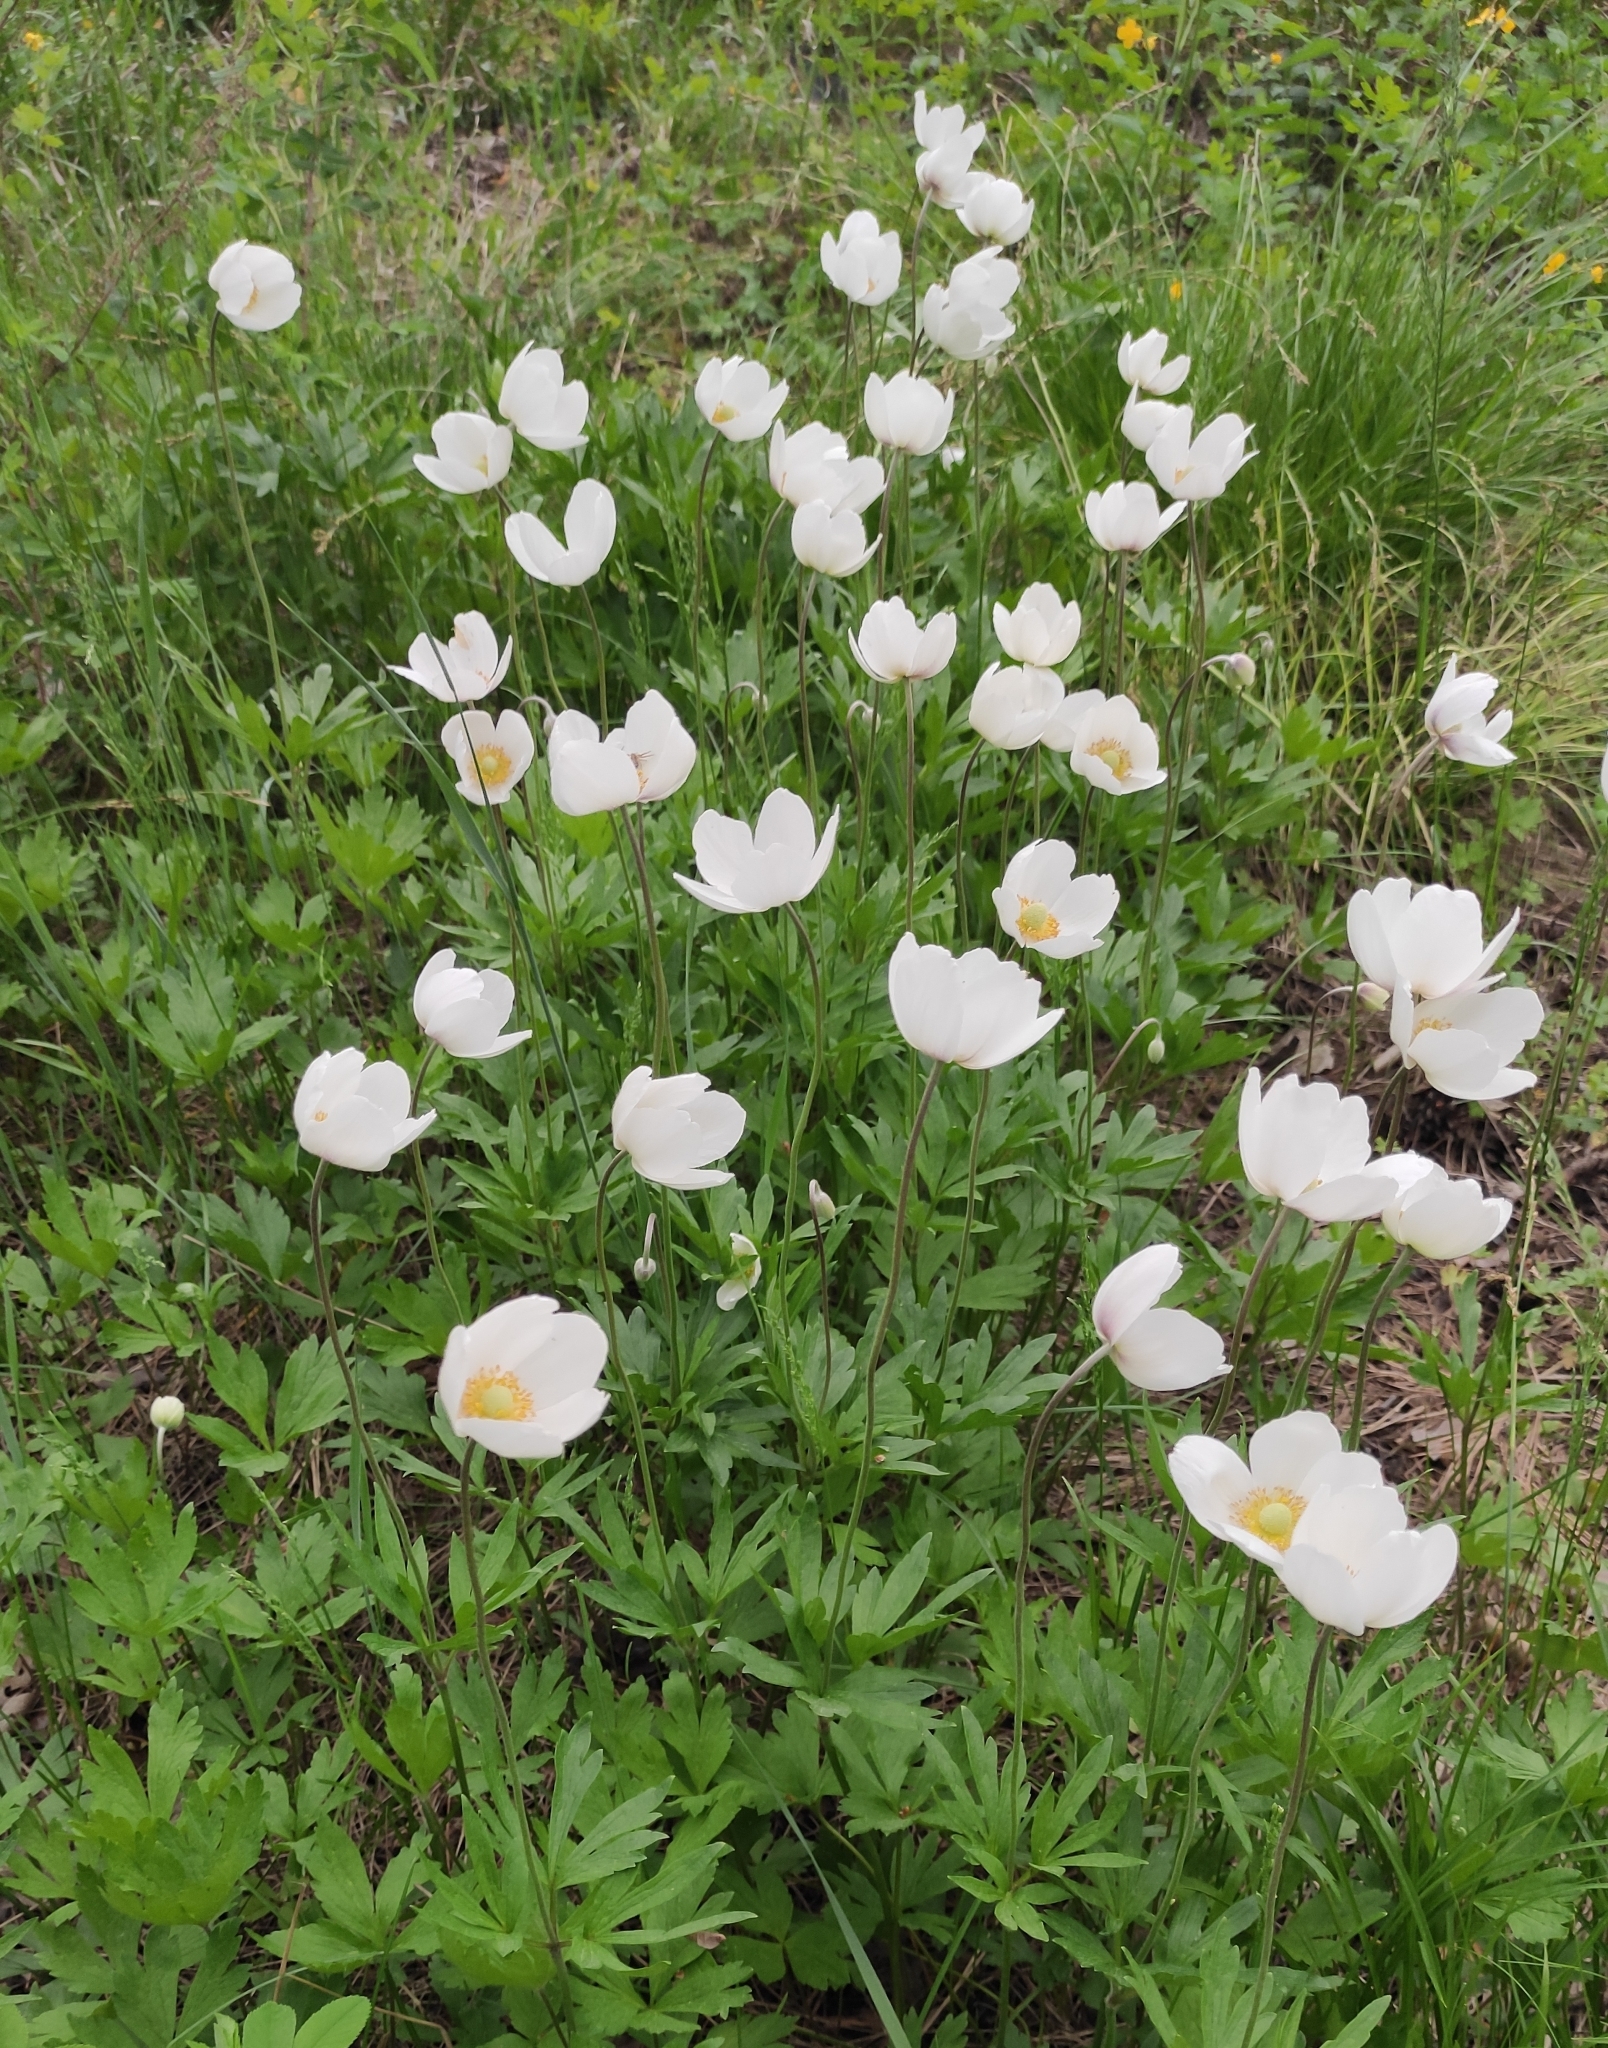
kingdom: Plantae
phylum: Tracheophyta
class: Magnoliopsida
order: Ranunculales
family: Ranunculaceae
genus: Anemone
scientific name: Anemone sylvestris
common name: Snowdrop anemone
